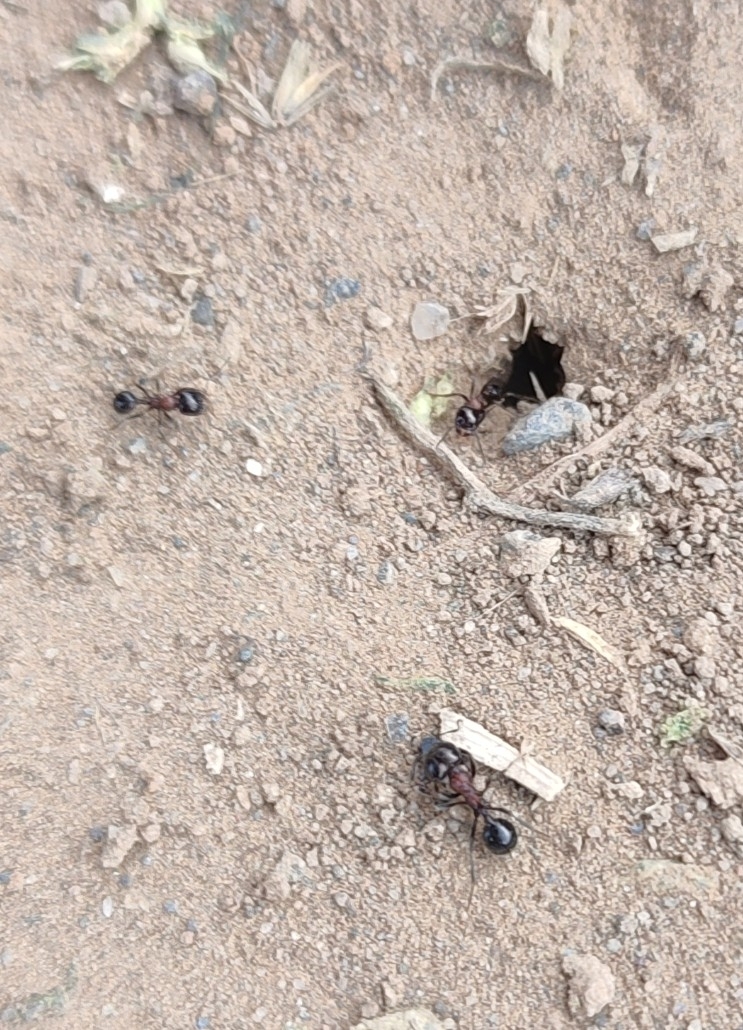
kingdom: Animalia
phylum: Arthropoda
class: Insecta
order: Hymenoptera
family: Formicidae
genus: Messor
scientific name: Messor denticulatus
